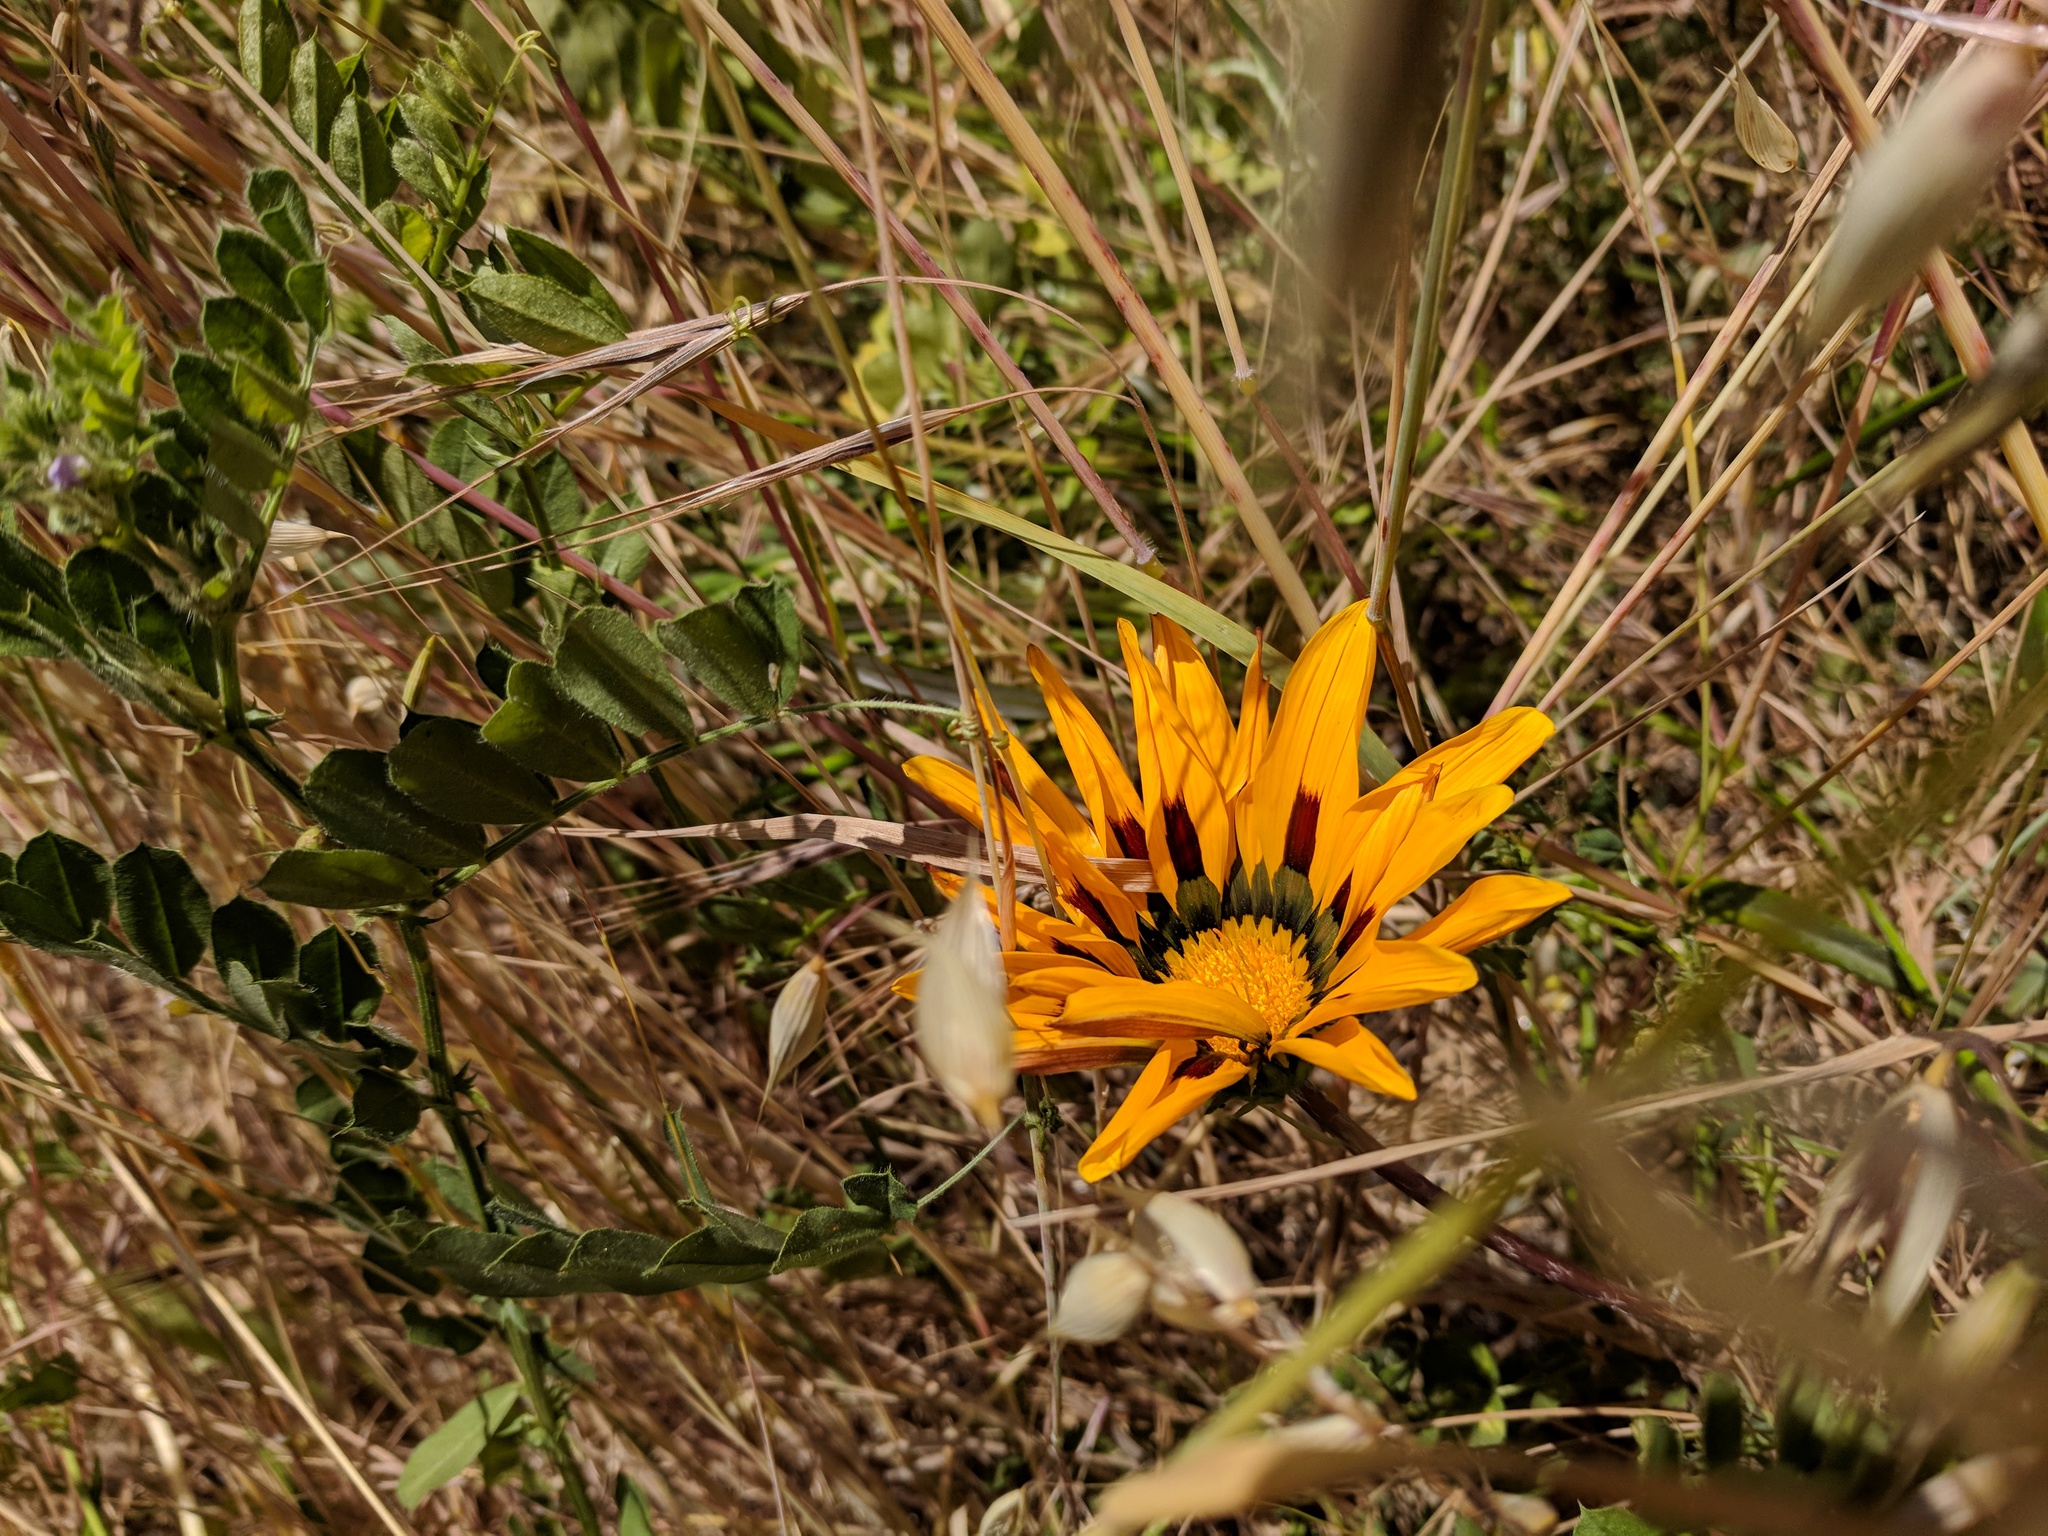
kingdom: Plantae
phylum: Tracheophyta
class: Magnoliopsida
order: Asterales
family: Asteraceae
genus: Gazania
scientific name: Gazania splendens
